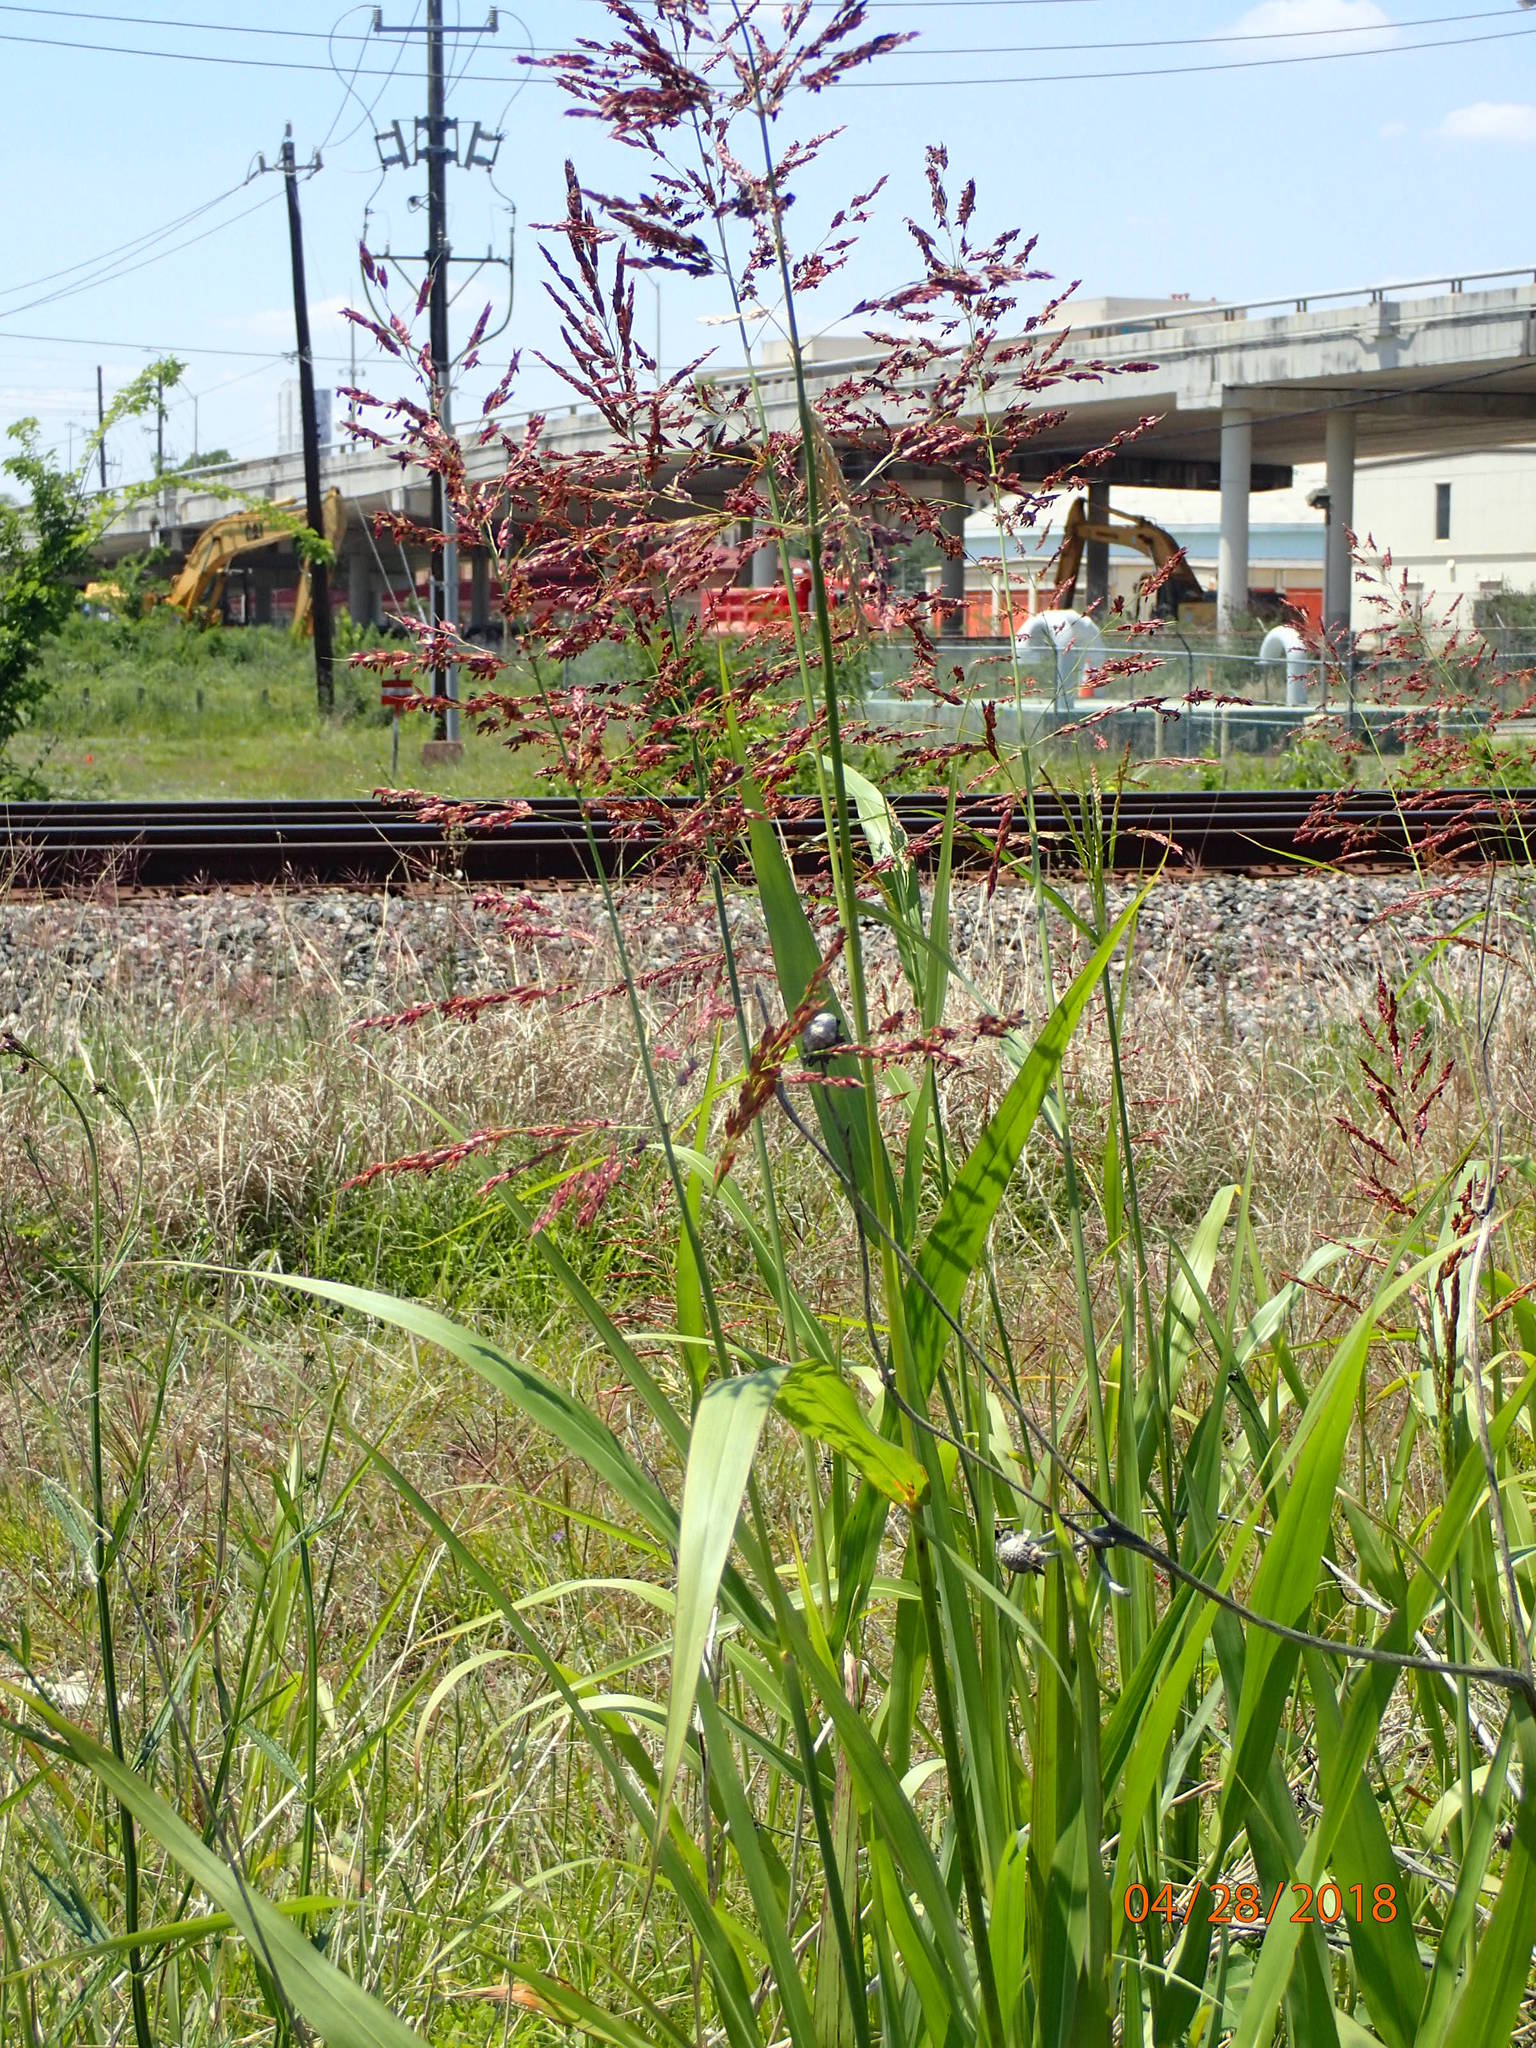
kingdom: Plantae
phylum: Tracheophyta
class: Liliopsida
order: Poales
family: Poaceae
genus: Sorghum
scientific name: Sorghum halepense
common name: Johnson-grass
